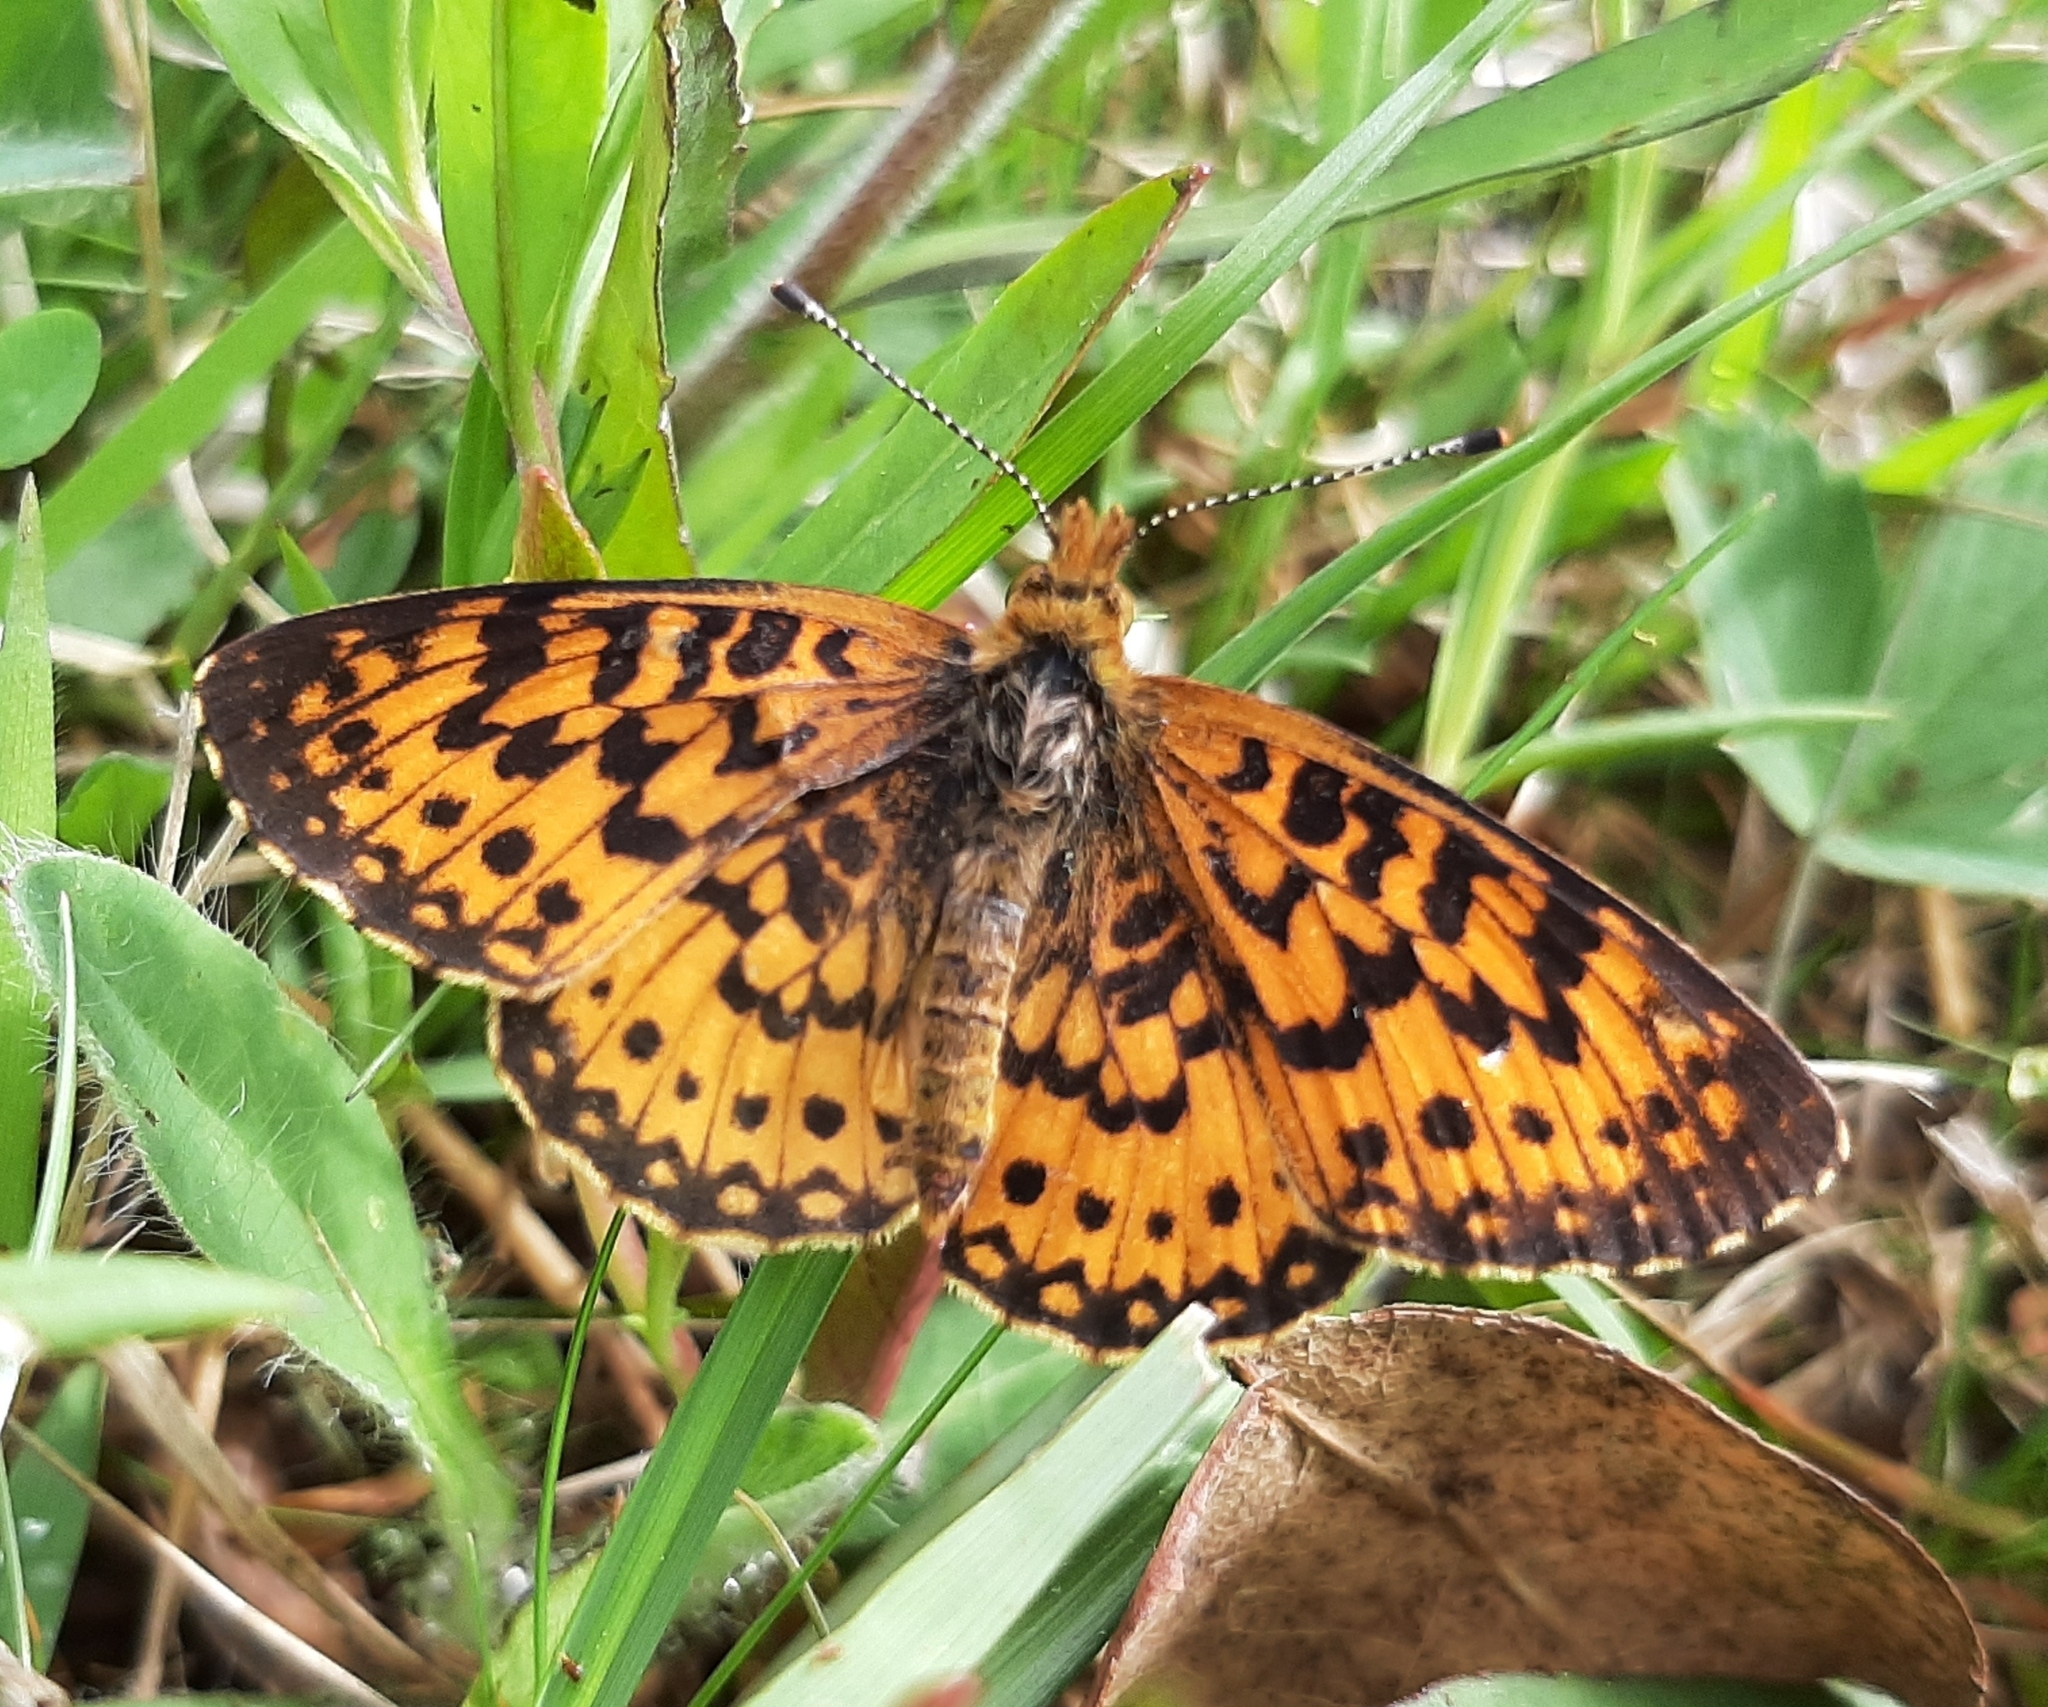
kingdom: Animalia
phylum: Arthropoda
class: Insecta
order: Lepidoptera
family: Nymphalidae
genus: Boloria
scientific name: Boloria
